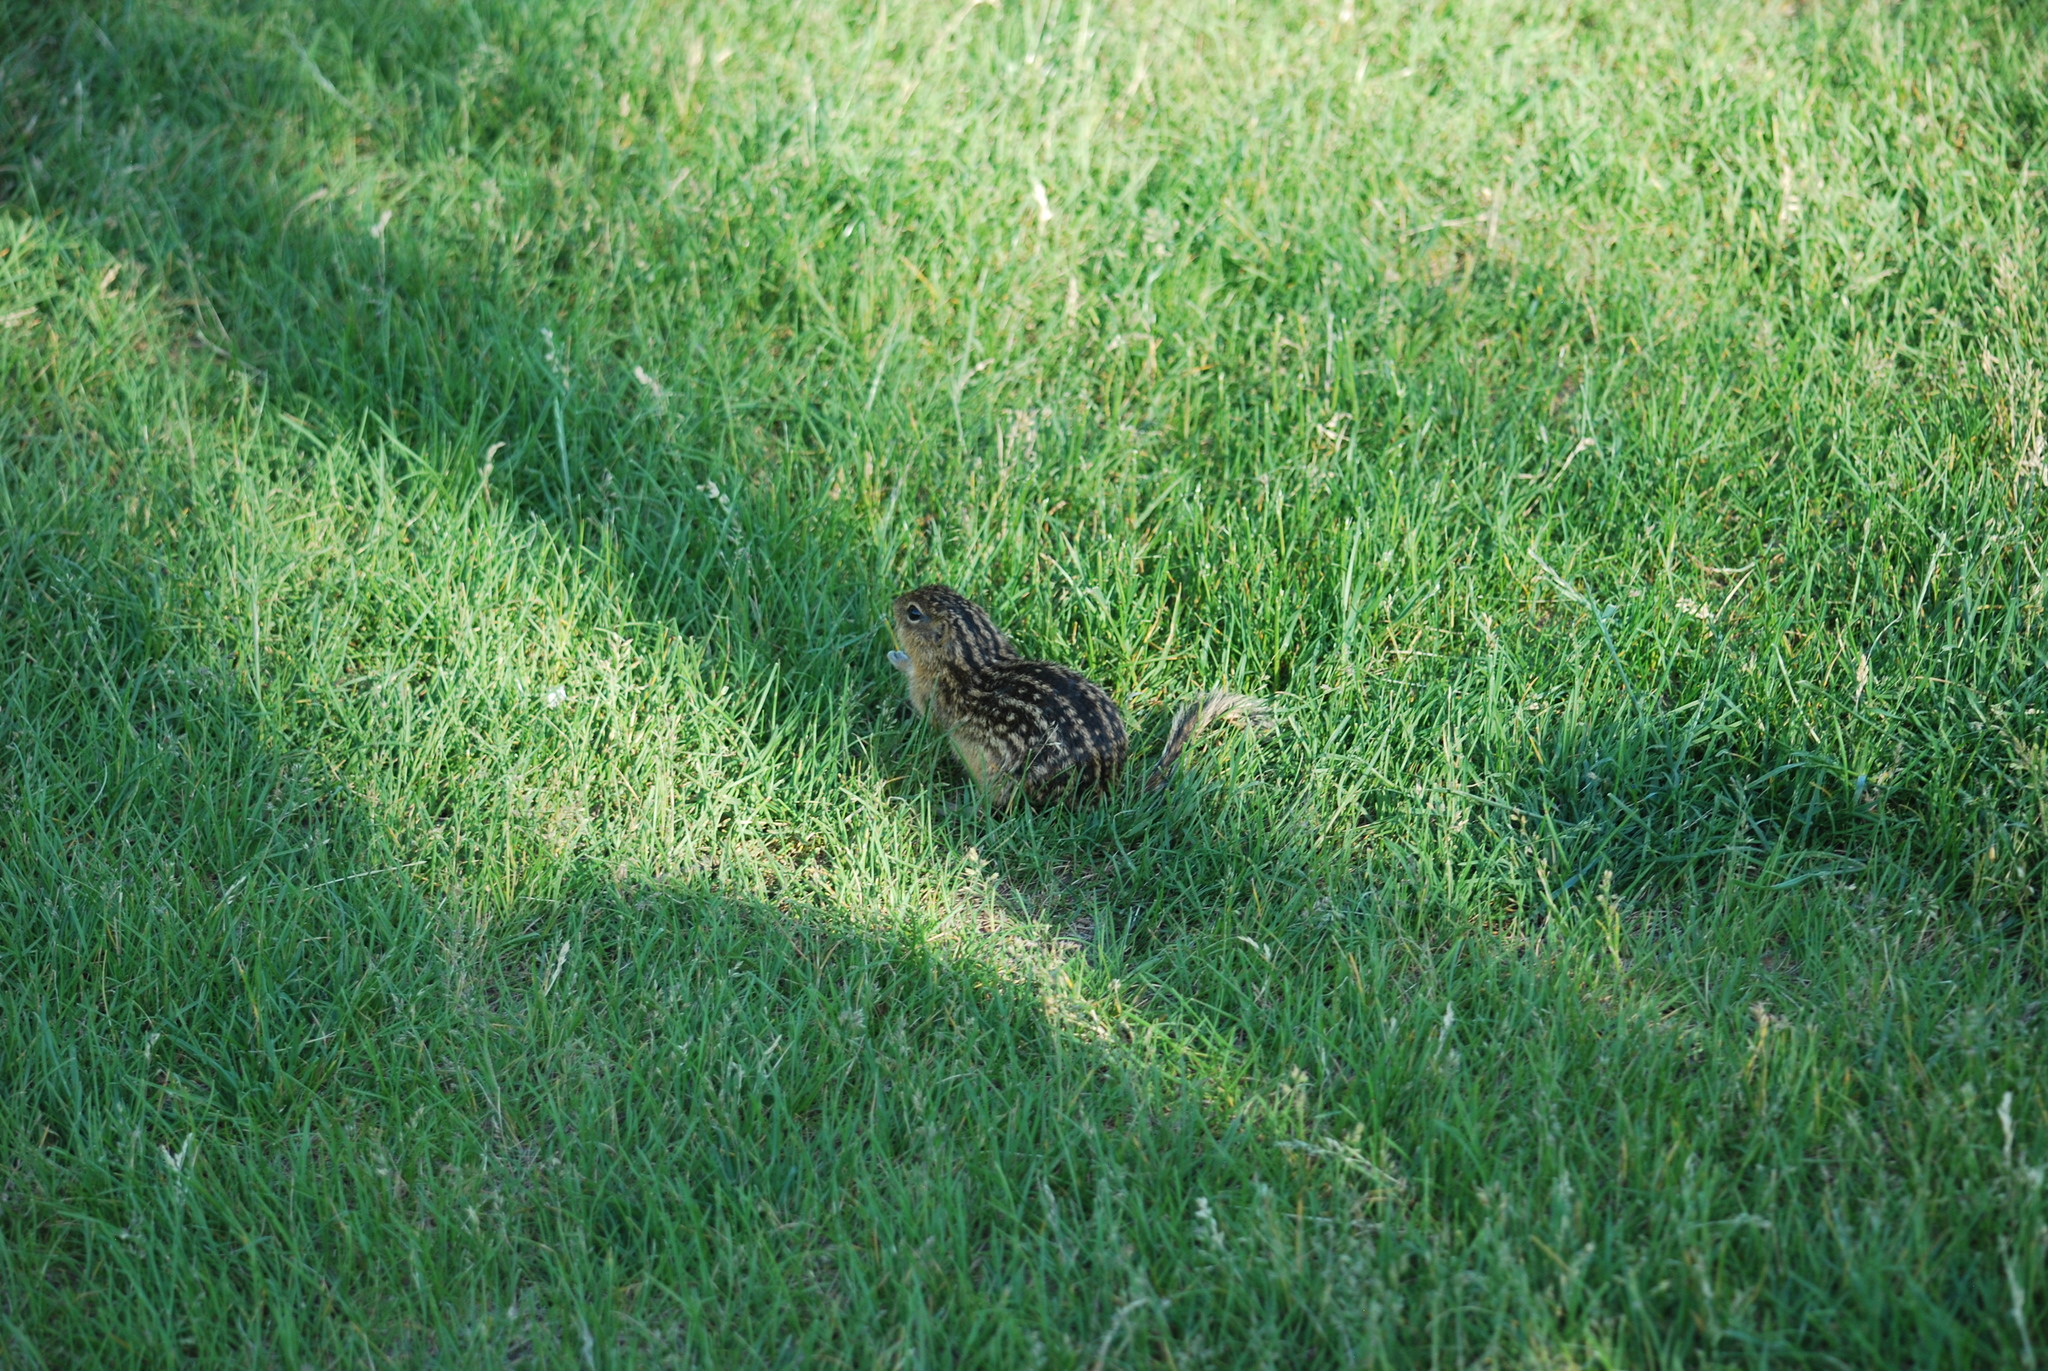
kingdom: Animalia
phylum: Chordata
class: Mammalia
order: Rodentia
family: Sciuridae
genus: Ictidomys
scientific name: Ictidomys tridecemlineatus
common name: Thirteen-lined ground squirrel
